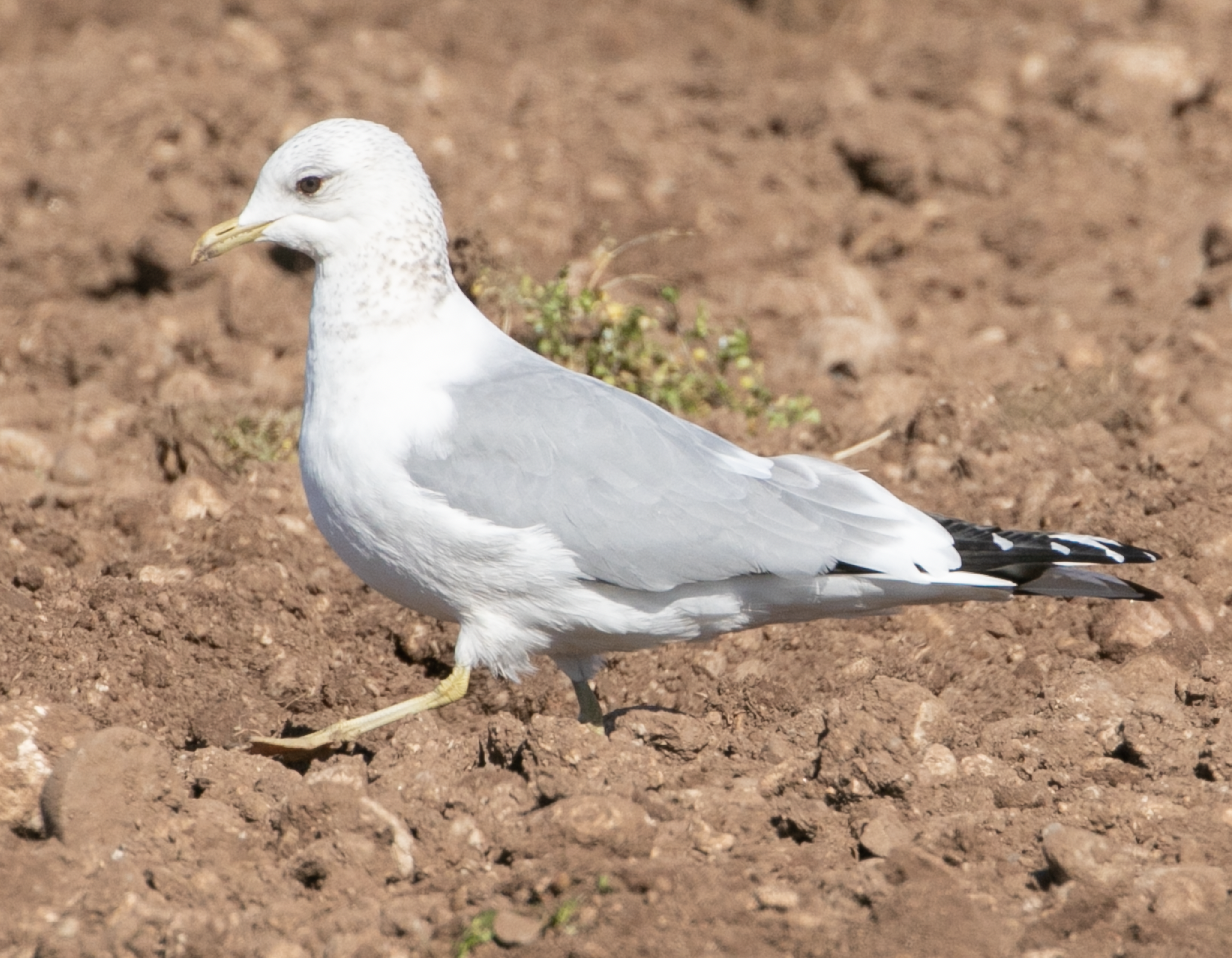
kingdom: Animalia
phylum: Chordata
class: Aves
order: Charadriiformes
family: Laridae
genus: Larus
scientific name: Larus canus
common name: Mew gull
